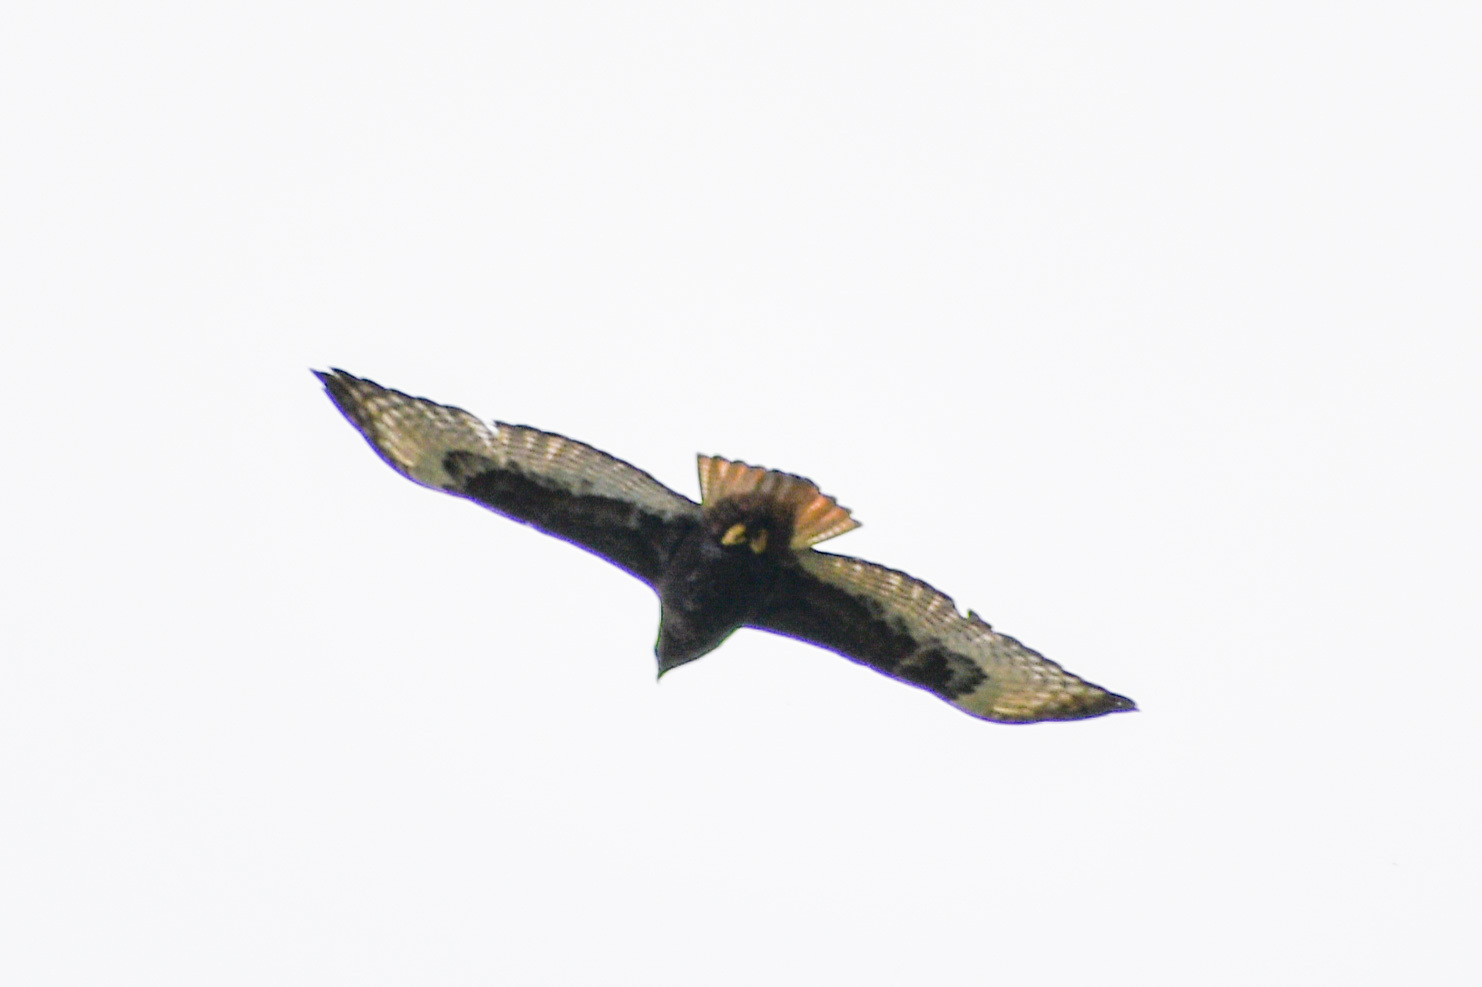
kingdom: Animalia
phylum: Chordata
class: Aves
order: Accipitriformes
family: Accipitridae
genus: Buteo
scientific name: Buteo jamaicensis
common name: Red-tailed hawk
